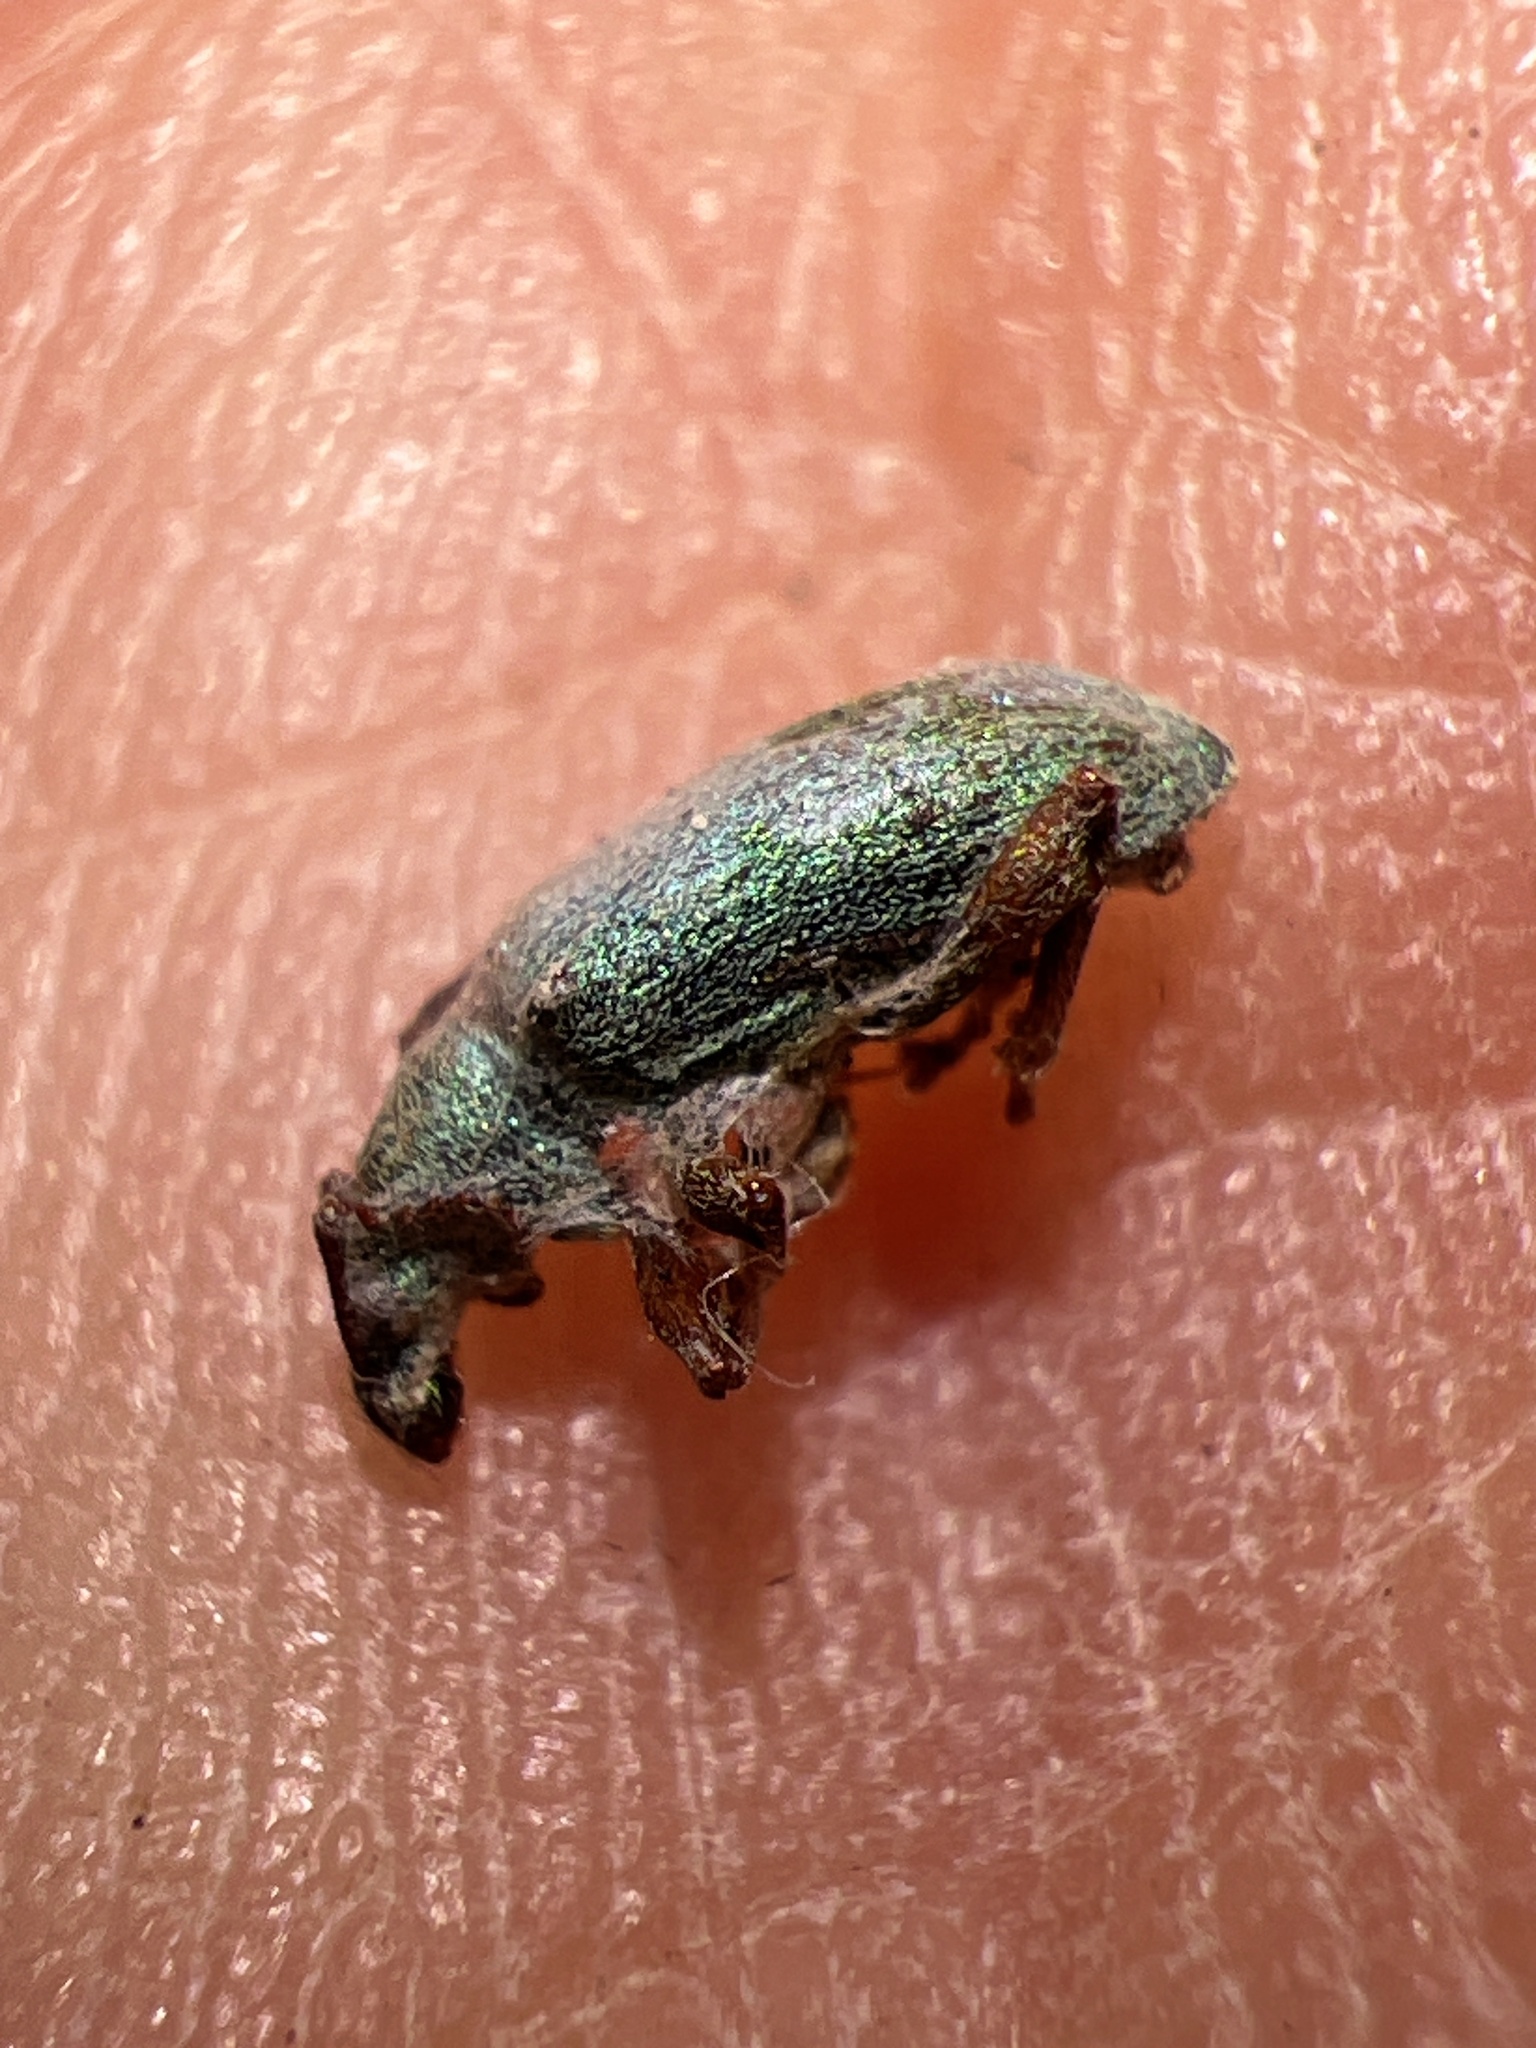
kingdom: Animalia
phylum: Arthropoda
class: Insecta
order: Coleoptera
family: Curculionidae
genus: Parascythopus
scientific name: Parascythopus intrusus
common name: Weevil
